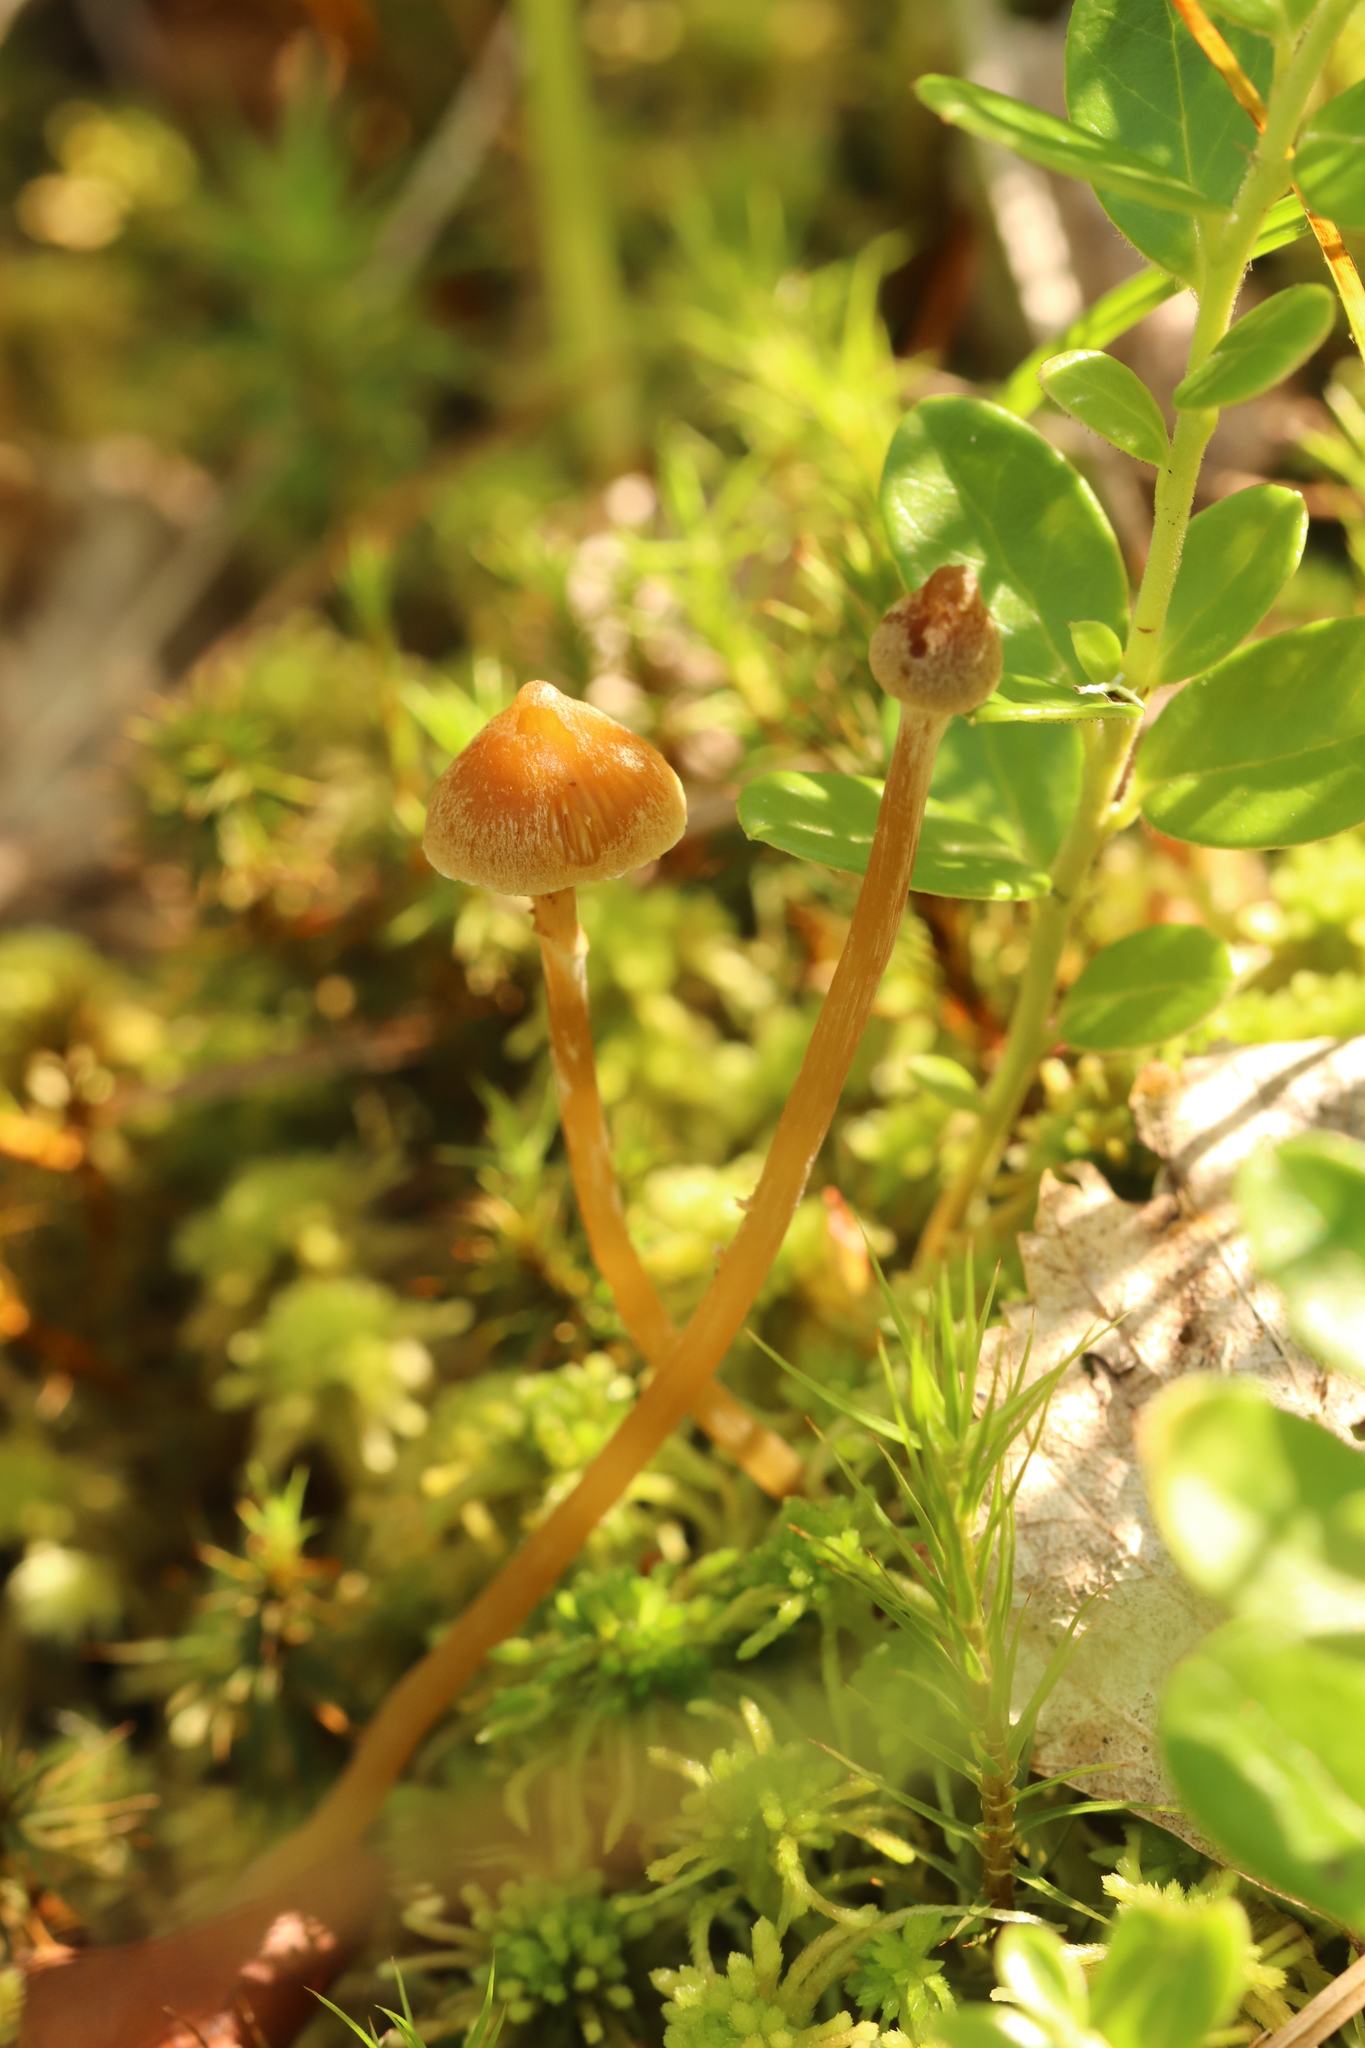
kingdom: Fungi
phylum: Basidiomycota
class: Agaricomycetes
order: Agaricales
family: Hymenogastraceae
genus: Galerina
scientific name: Galerina paludosa
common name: Bog bell
